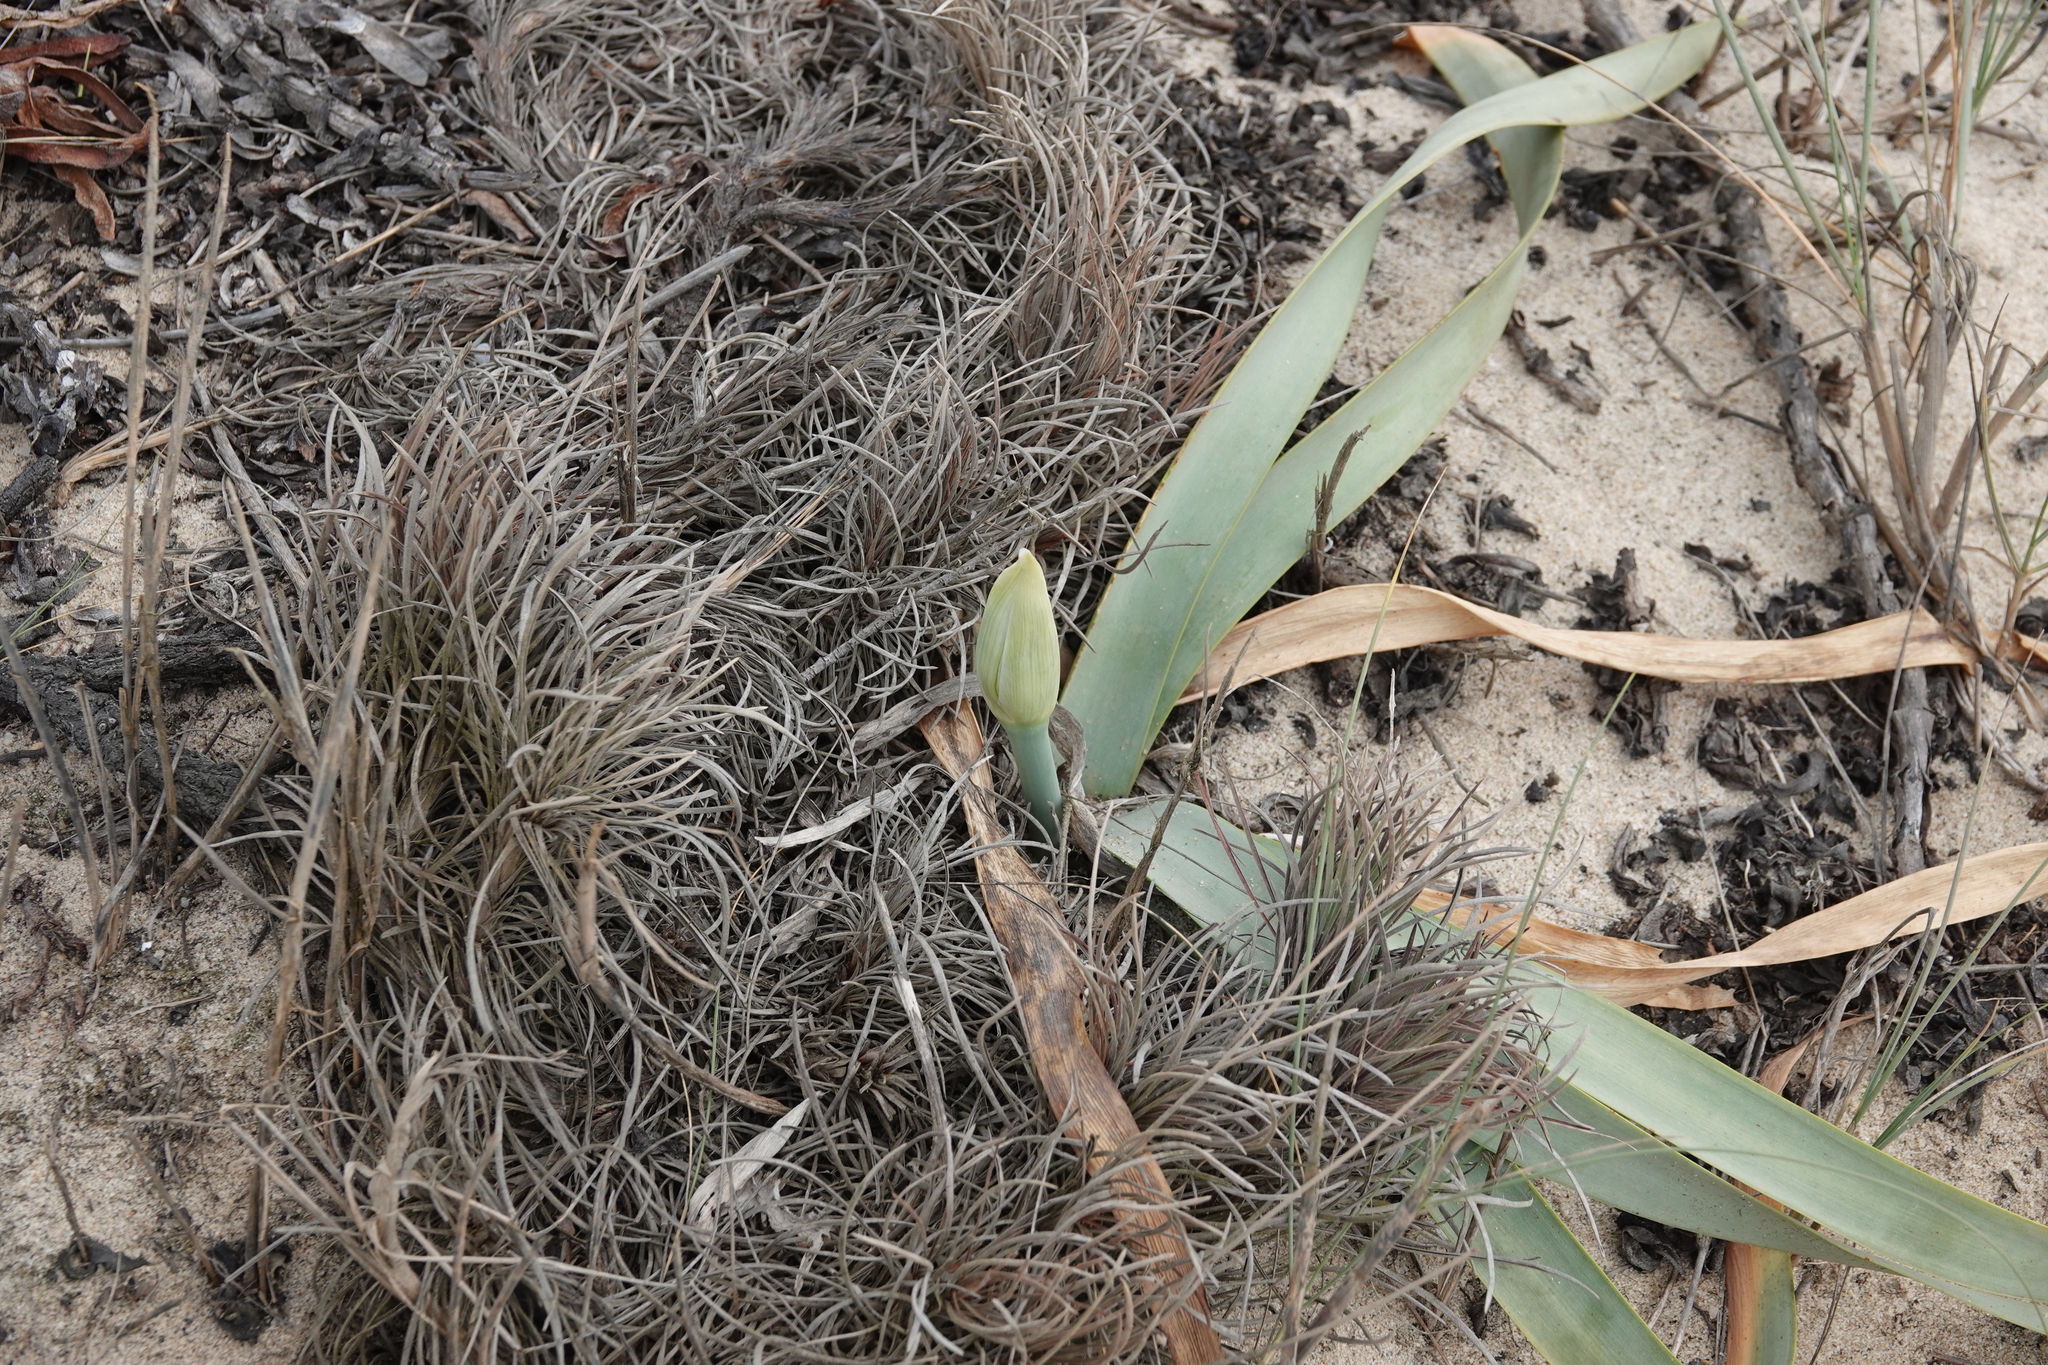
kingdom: Plantae
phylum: Tracheophyta
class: Liliopsida
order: Asparagales
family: Amaryllidaceae
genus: Pancratium
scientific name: Pancratium maritimum
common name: Sea-daffodil
